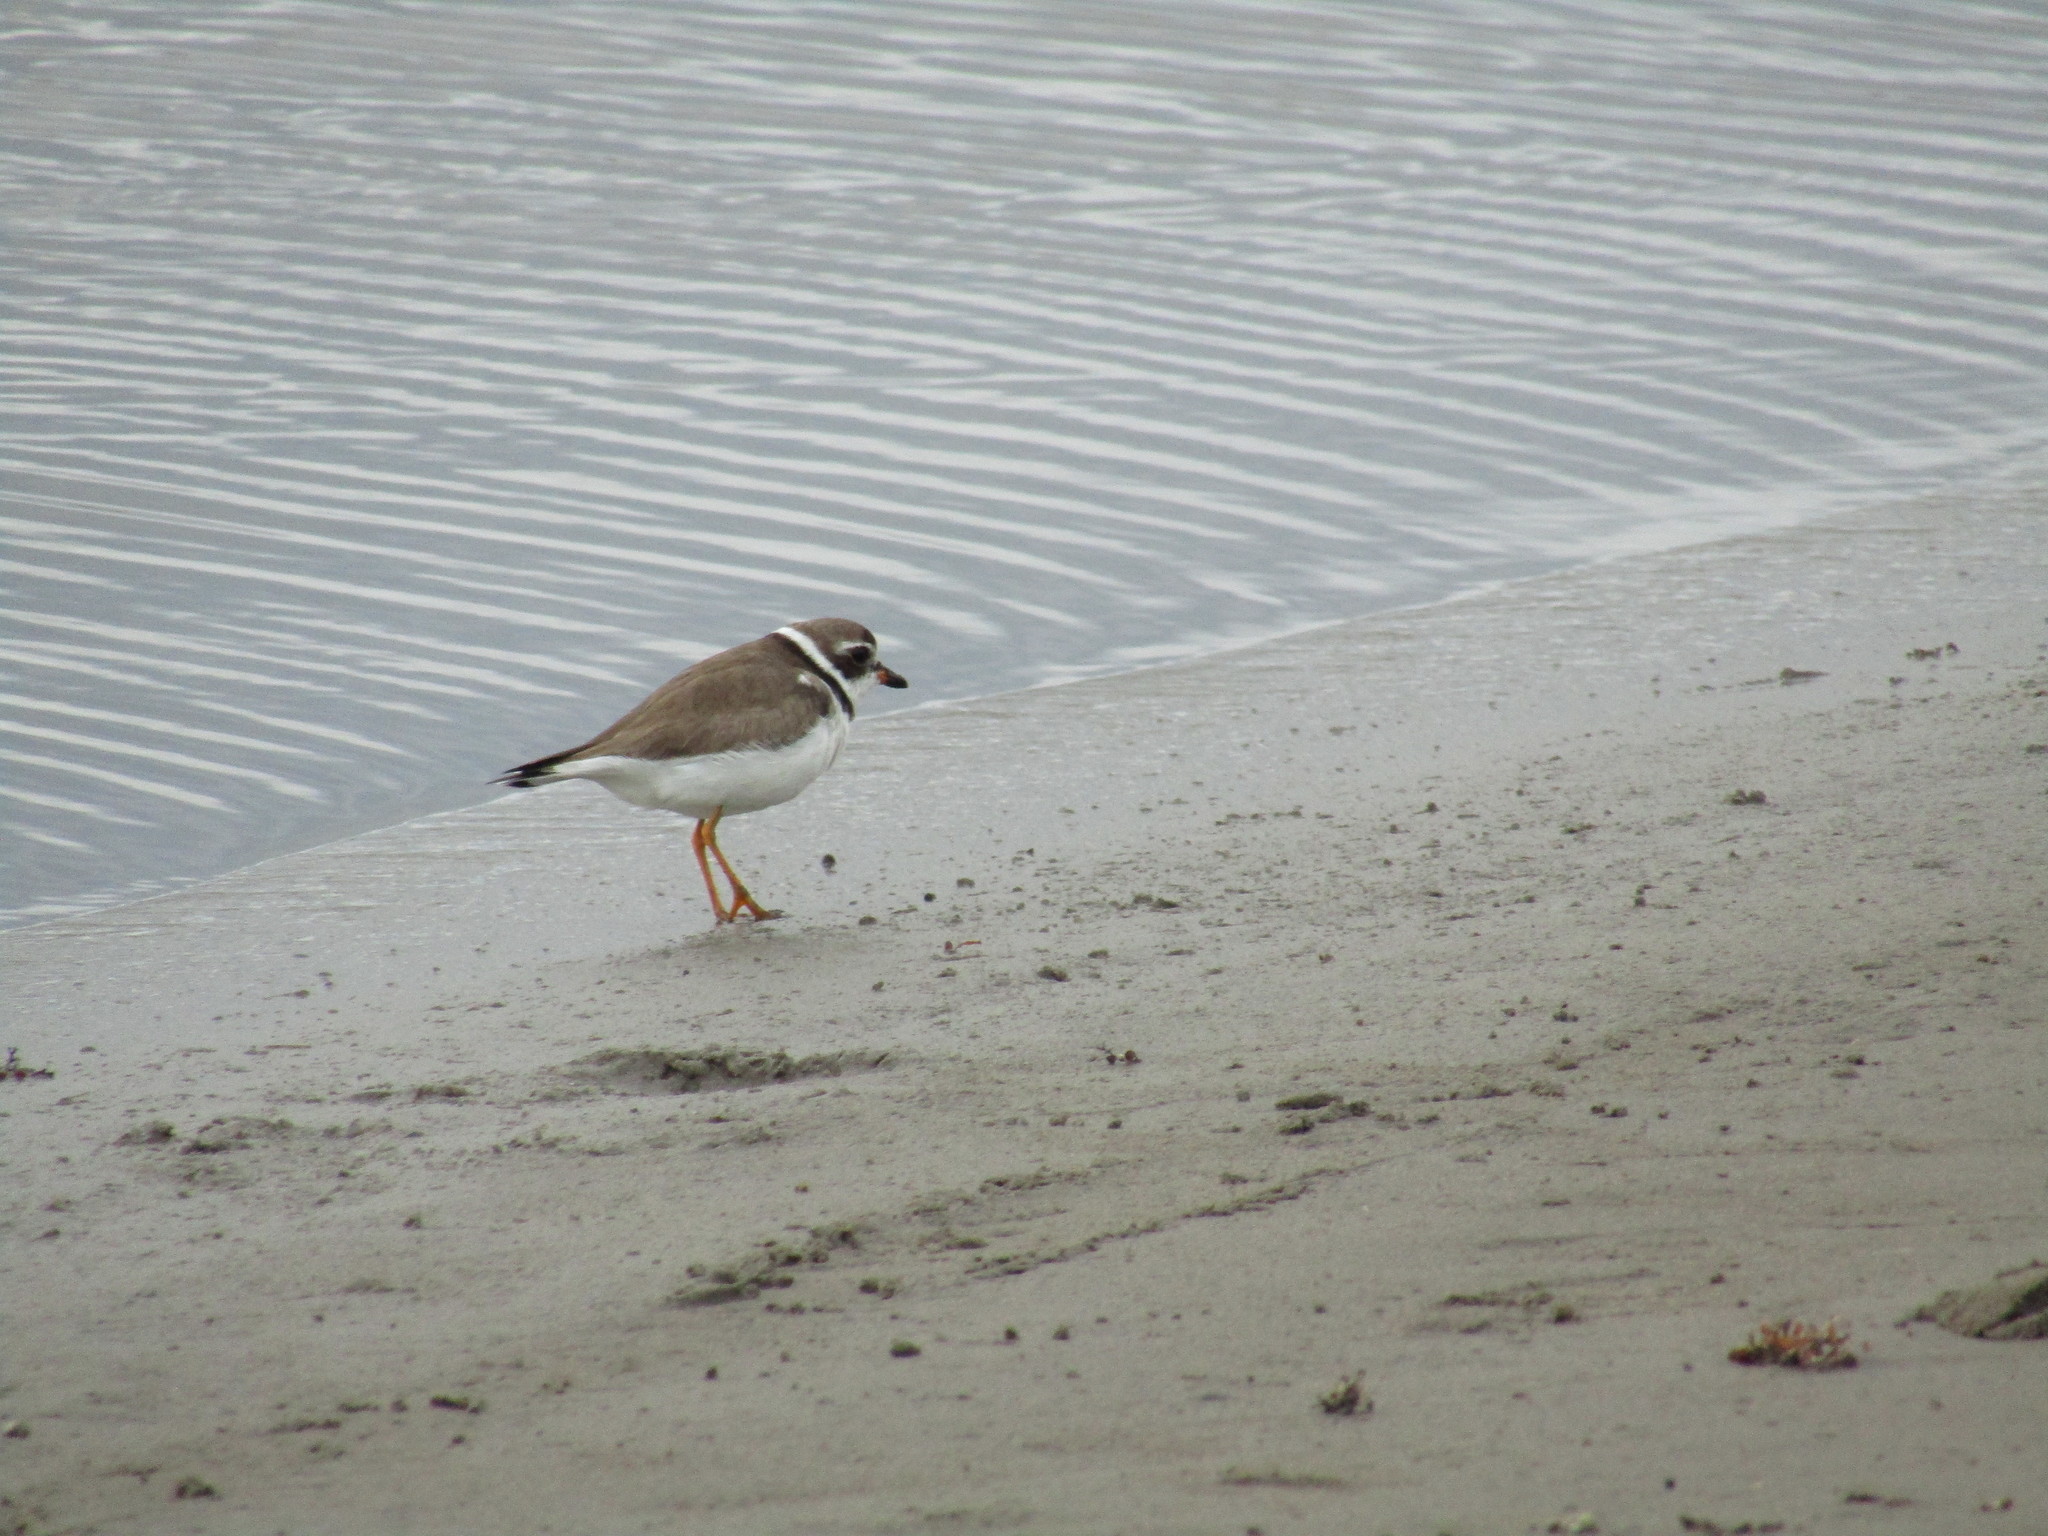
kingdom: Animalia
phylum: Chordata
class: Aves
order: Charadriiformes
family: Charadriidae
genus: Charadrius
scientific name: Charadrius semipalmatus
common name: Semipalmated plover
